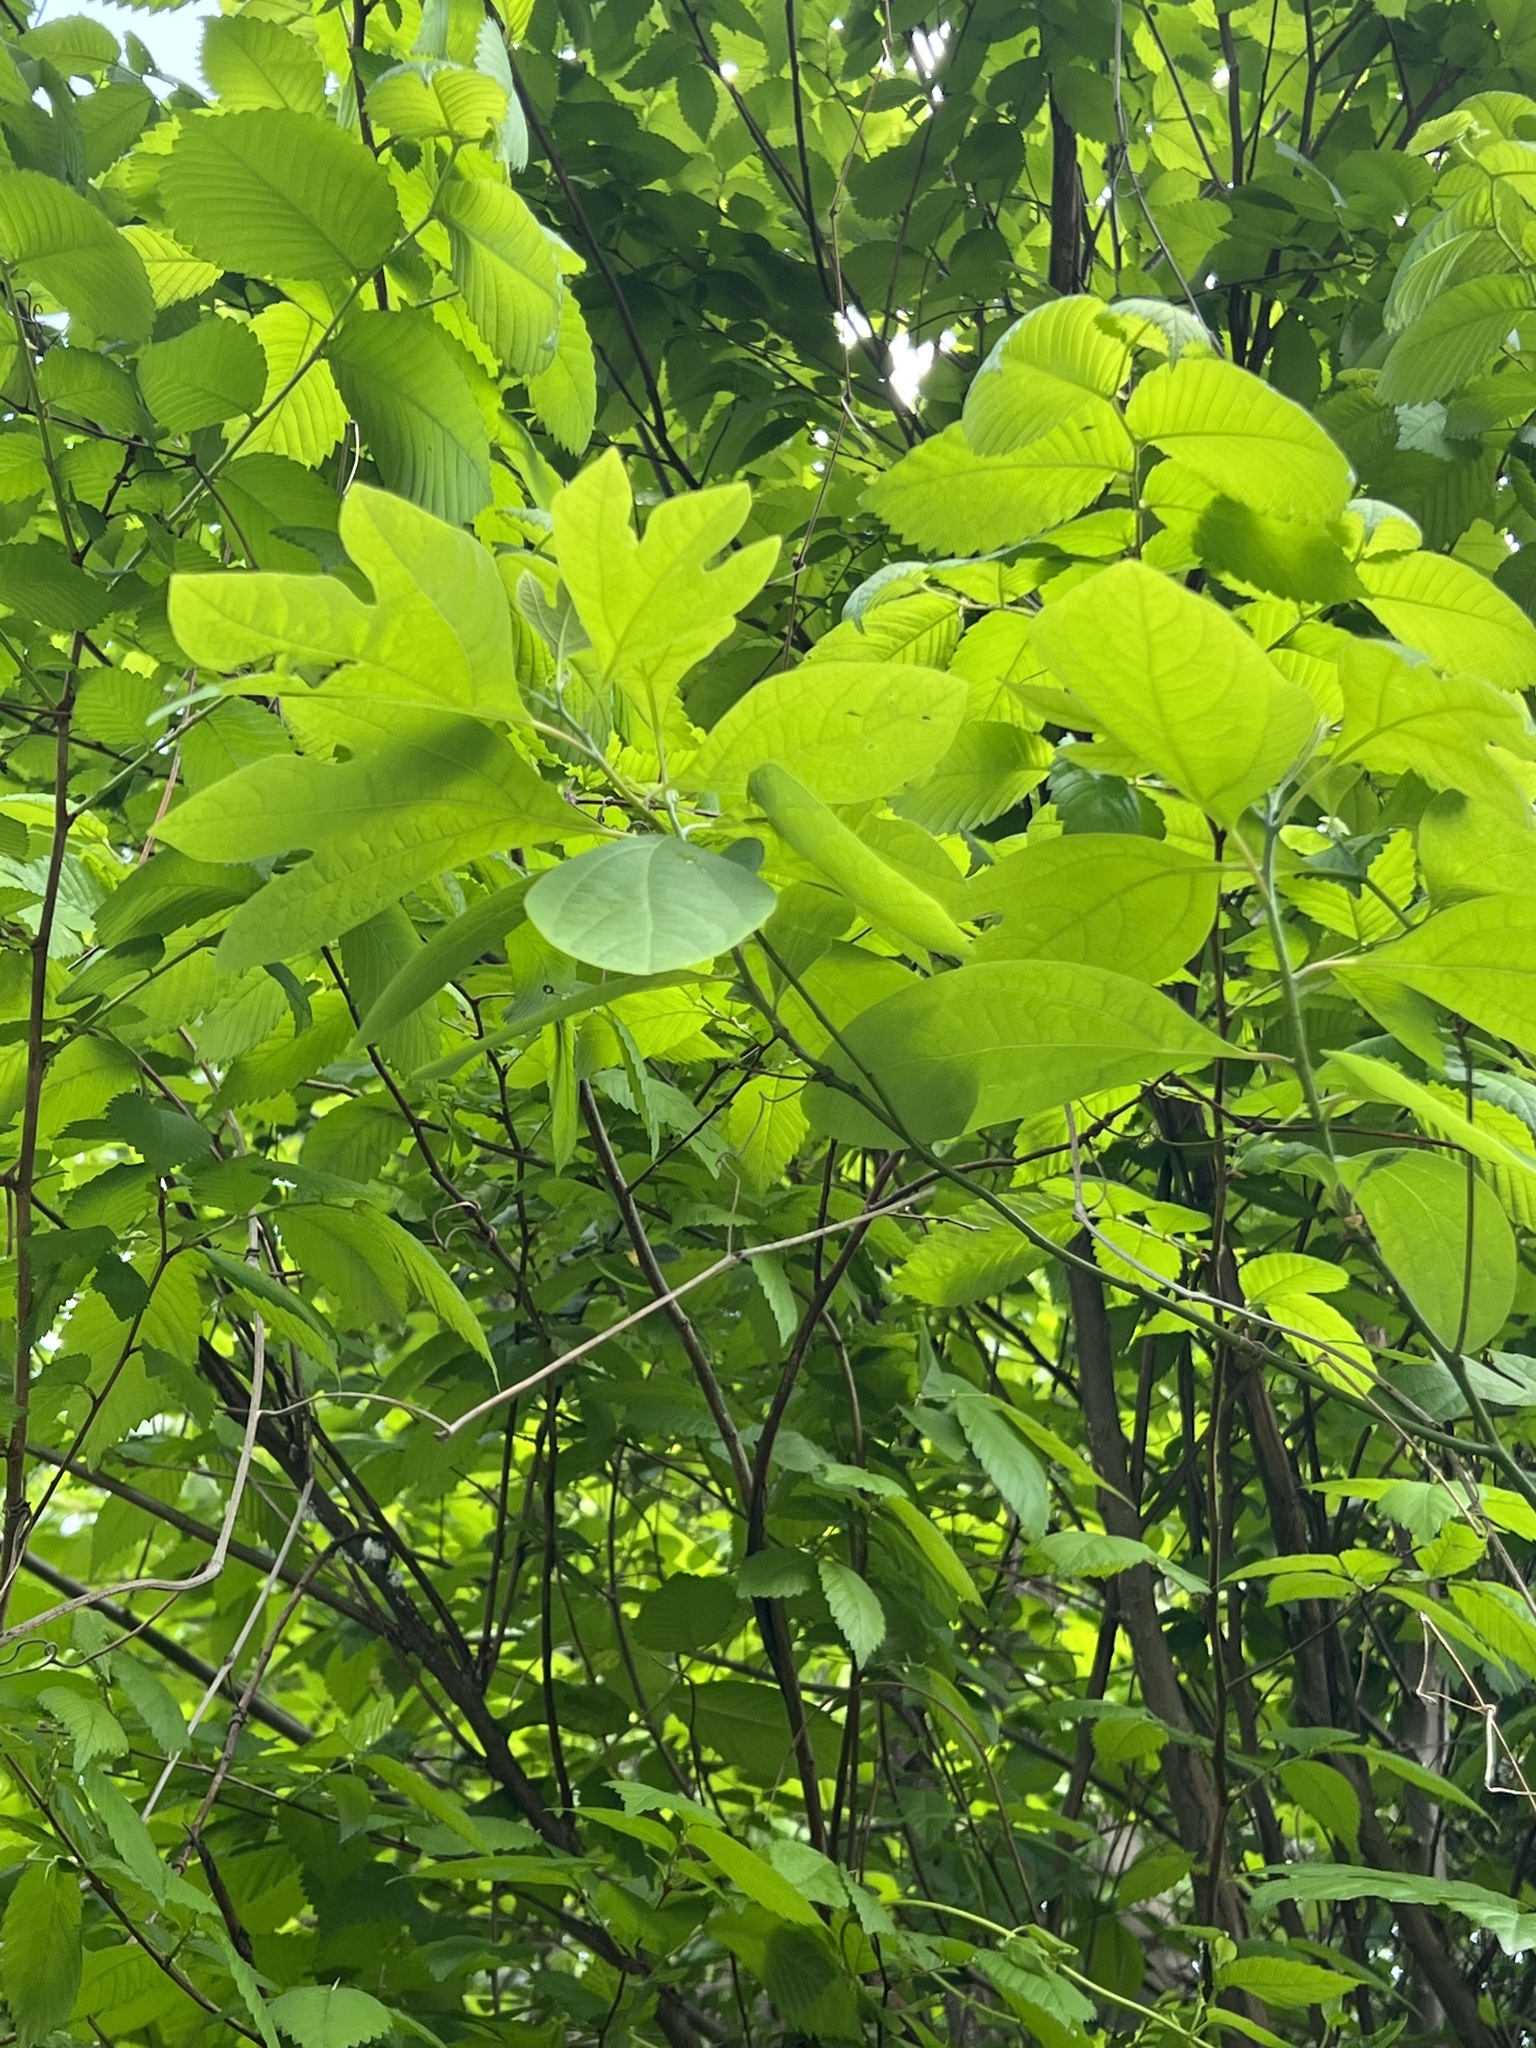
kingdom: Plantae
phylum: Tracheophyta
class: Magnoliopsida
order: Laurales
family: Lauraceae
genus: Sassafras
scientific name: Sassafras albidum
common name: Sassafras
